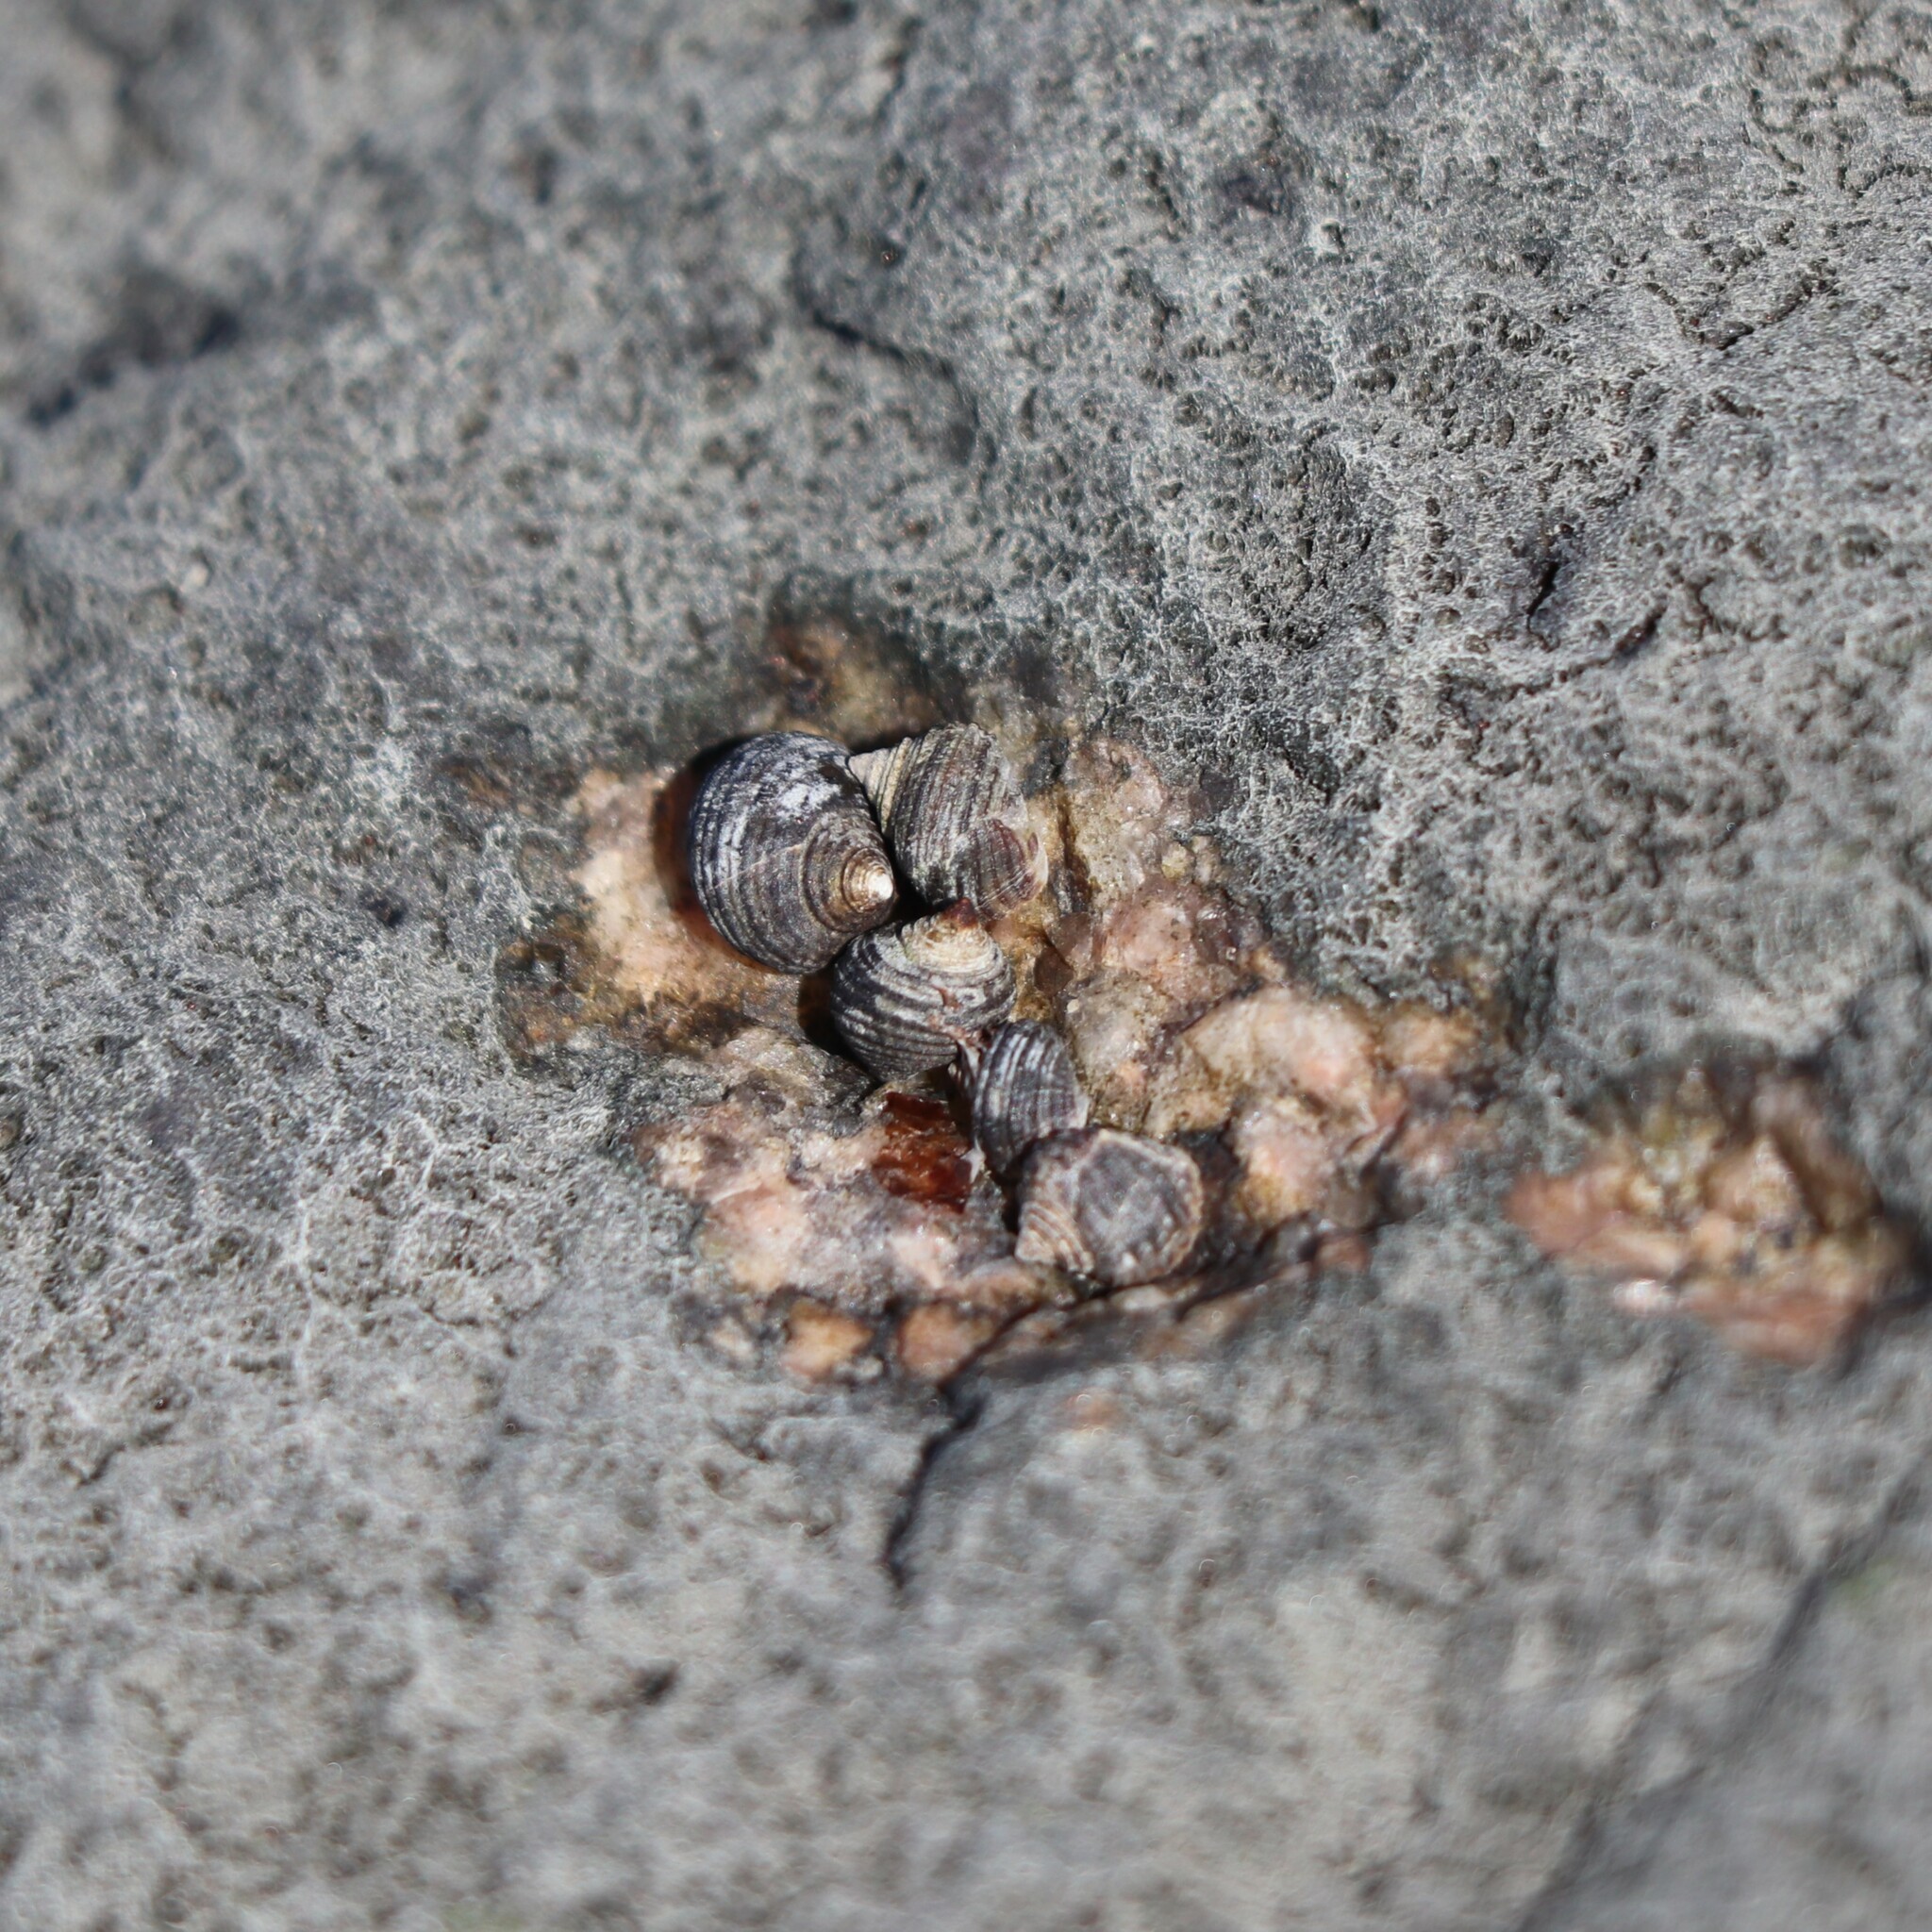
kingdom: Animalia
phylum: Mollusca
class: Gastropoda
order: Littorinimorpha
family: Littorinidae
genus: Littorina
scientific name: Littorina littorea
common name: Common periwinkle
